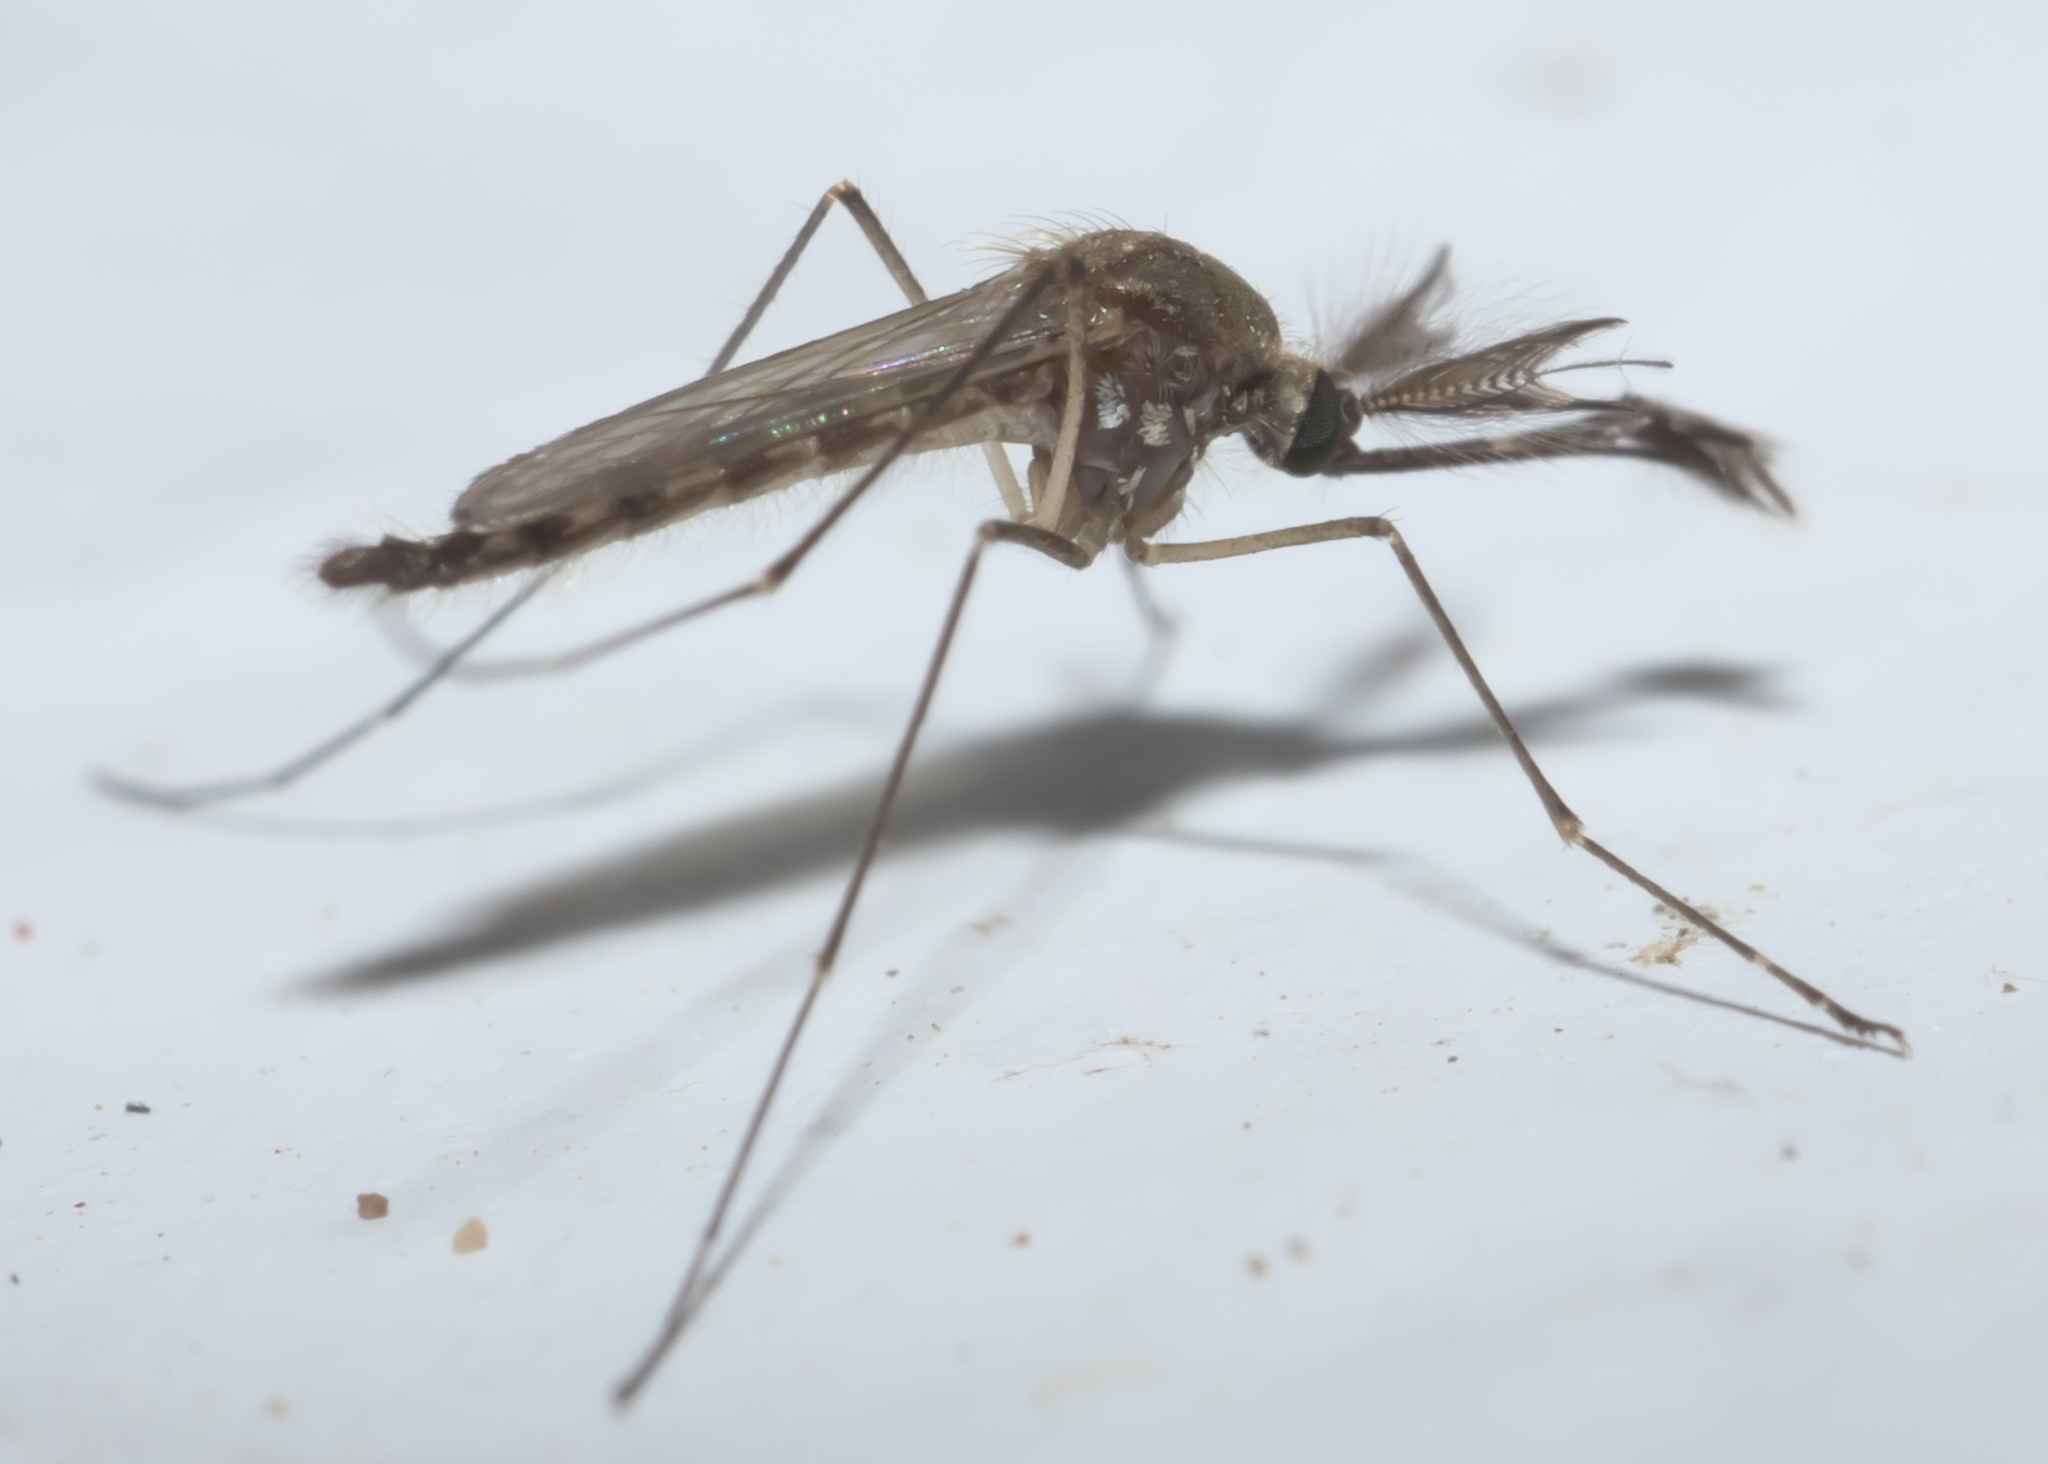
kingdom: Animalia
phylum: Arthropoda
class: Insecta
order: Diptera
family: Culicidae
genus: Aedes
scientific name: Aedes vexans
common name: Inland floodwater mosquito
